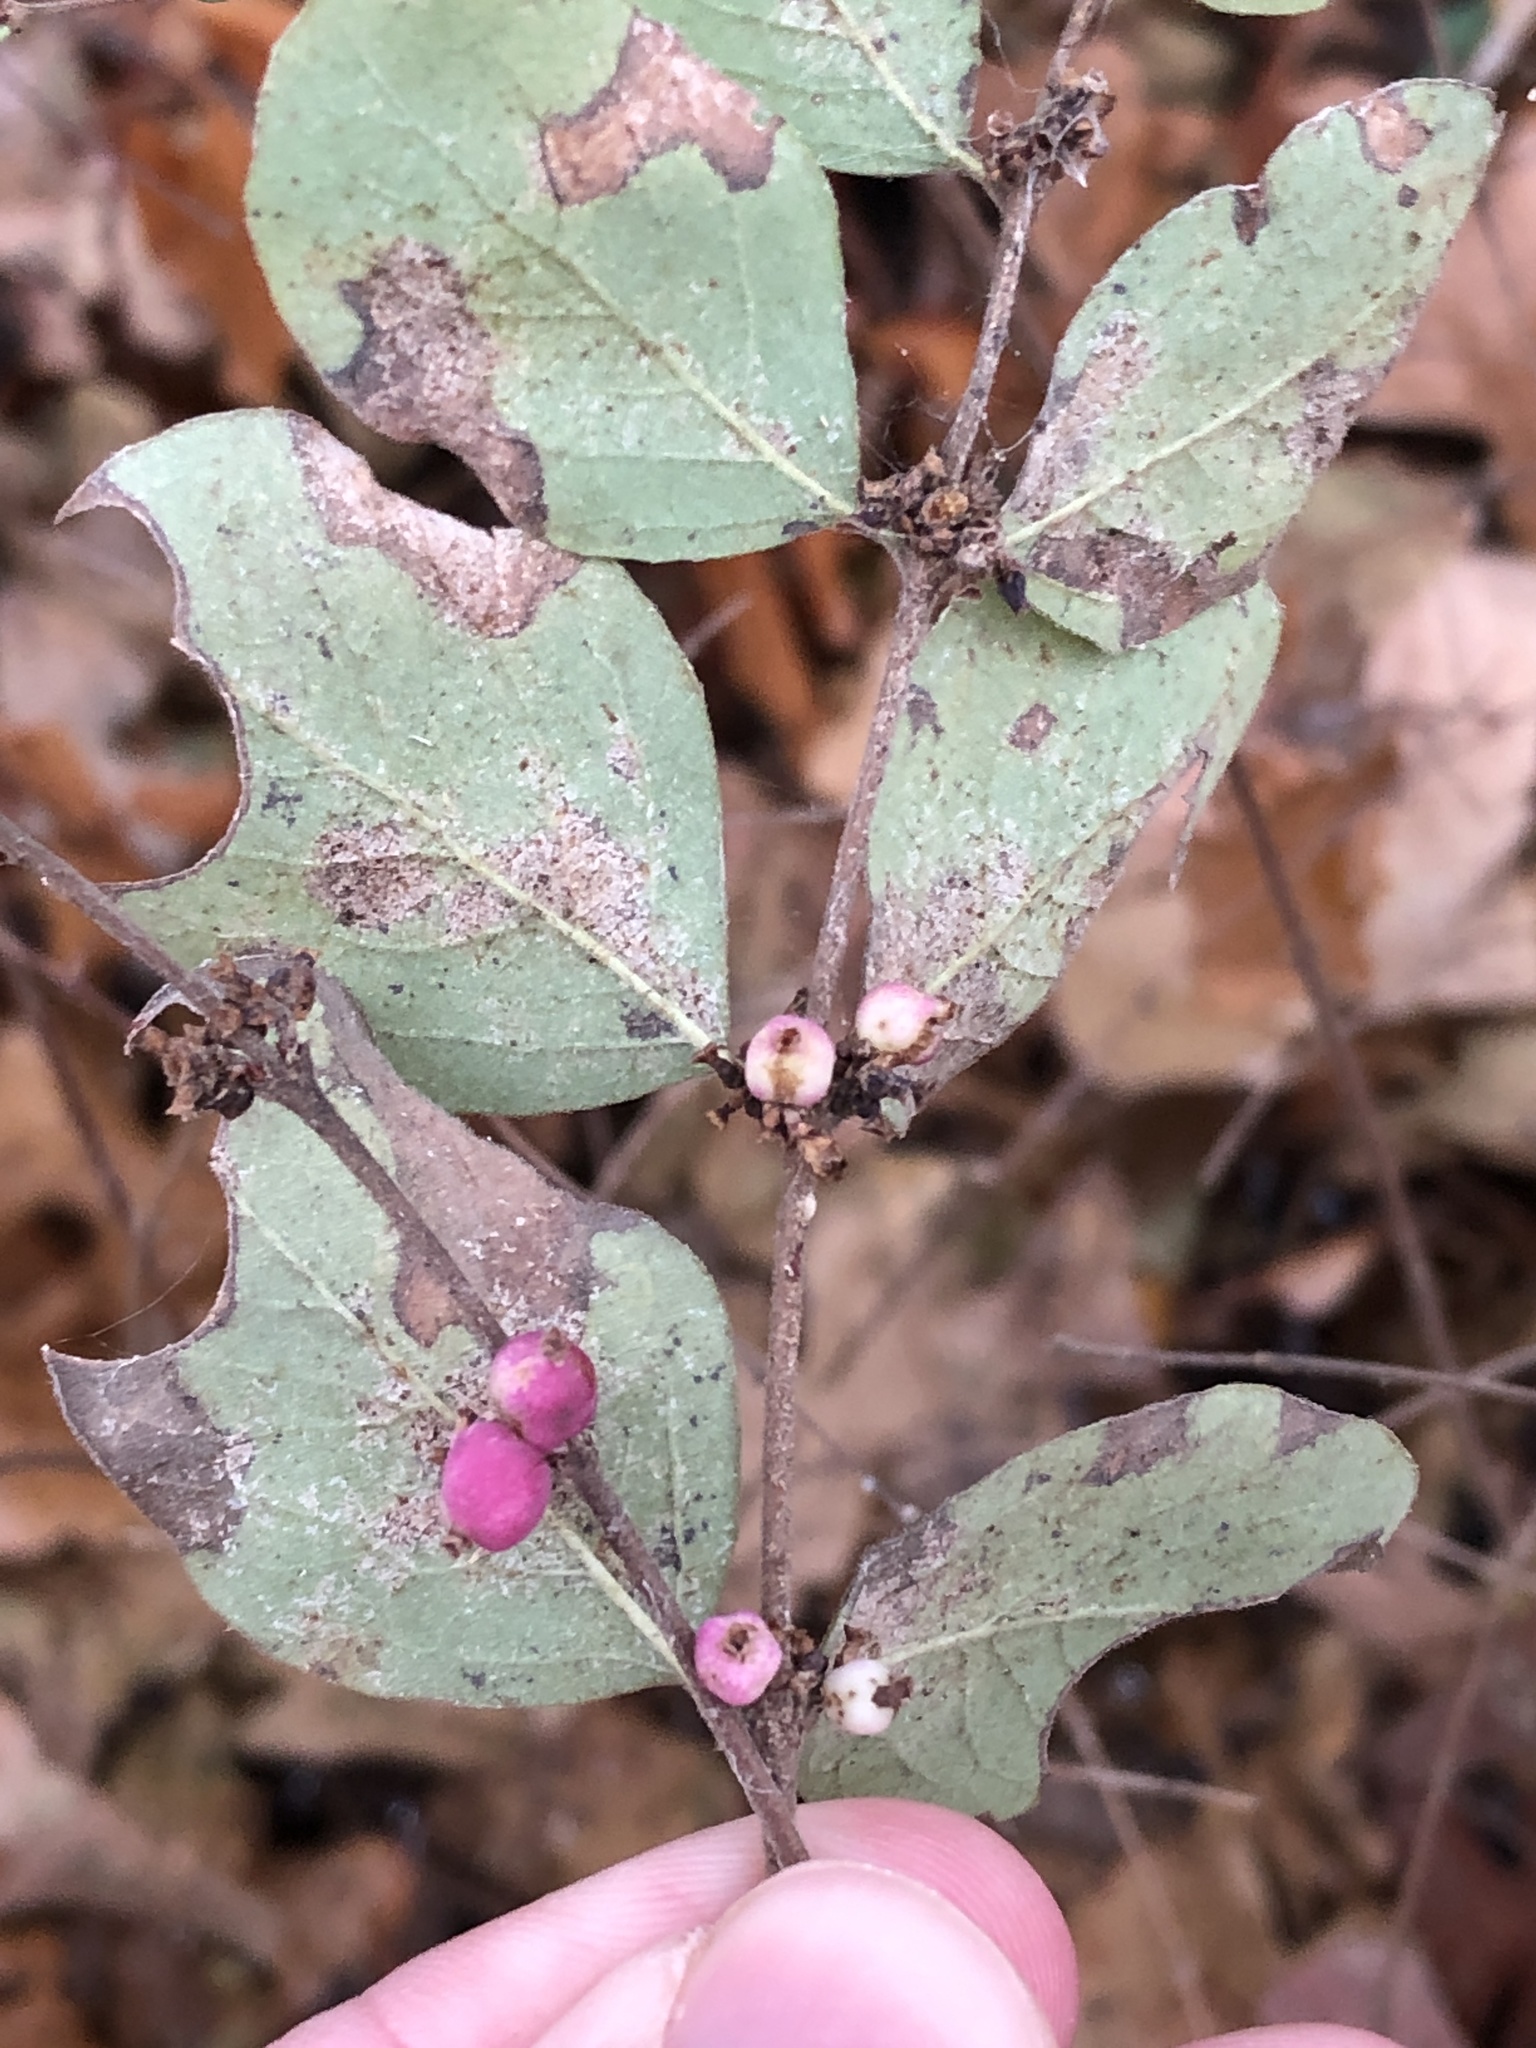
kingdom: Plantae
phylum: Tracheophyta
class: Magnoliopsida
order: Dipsacales
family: Caprifoliaceae
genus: Symphoricarpos
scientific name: Symphoricarpos orbiculatus
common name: Coralberry
